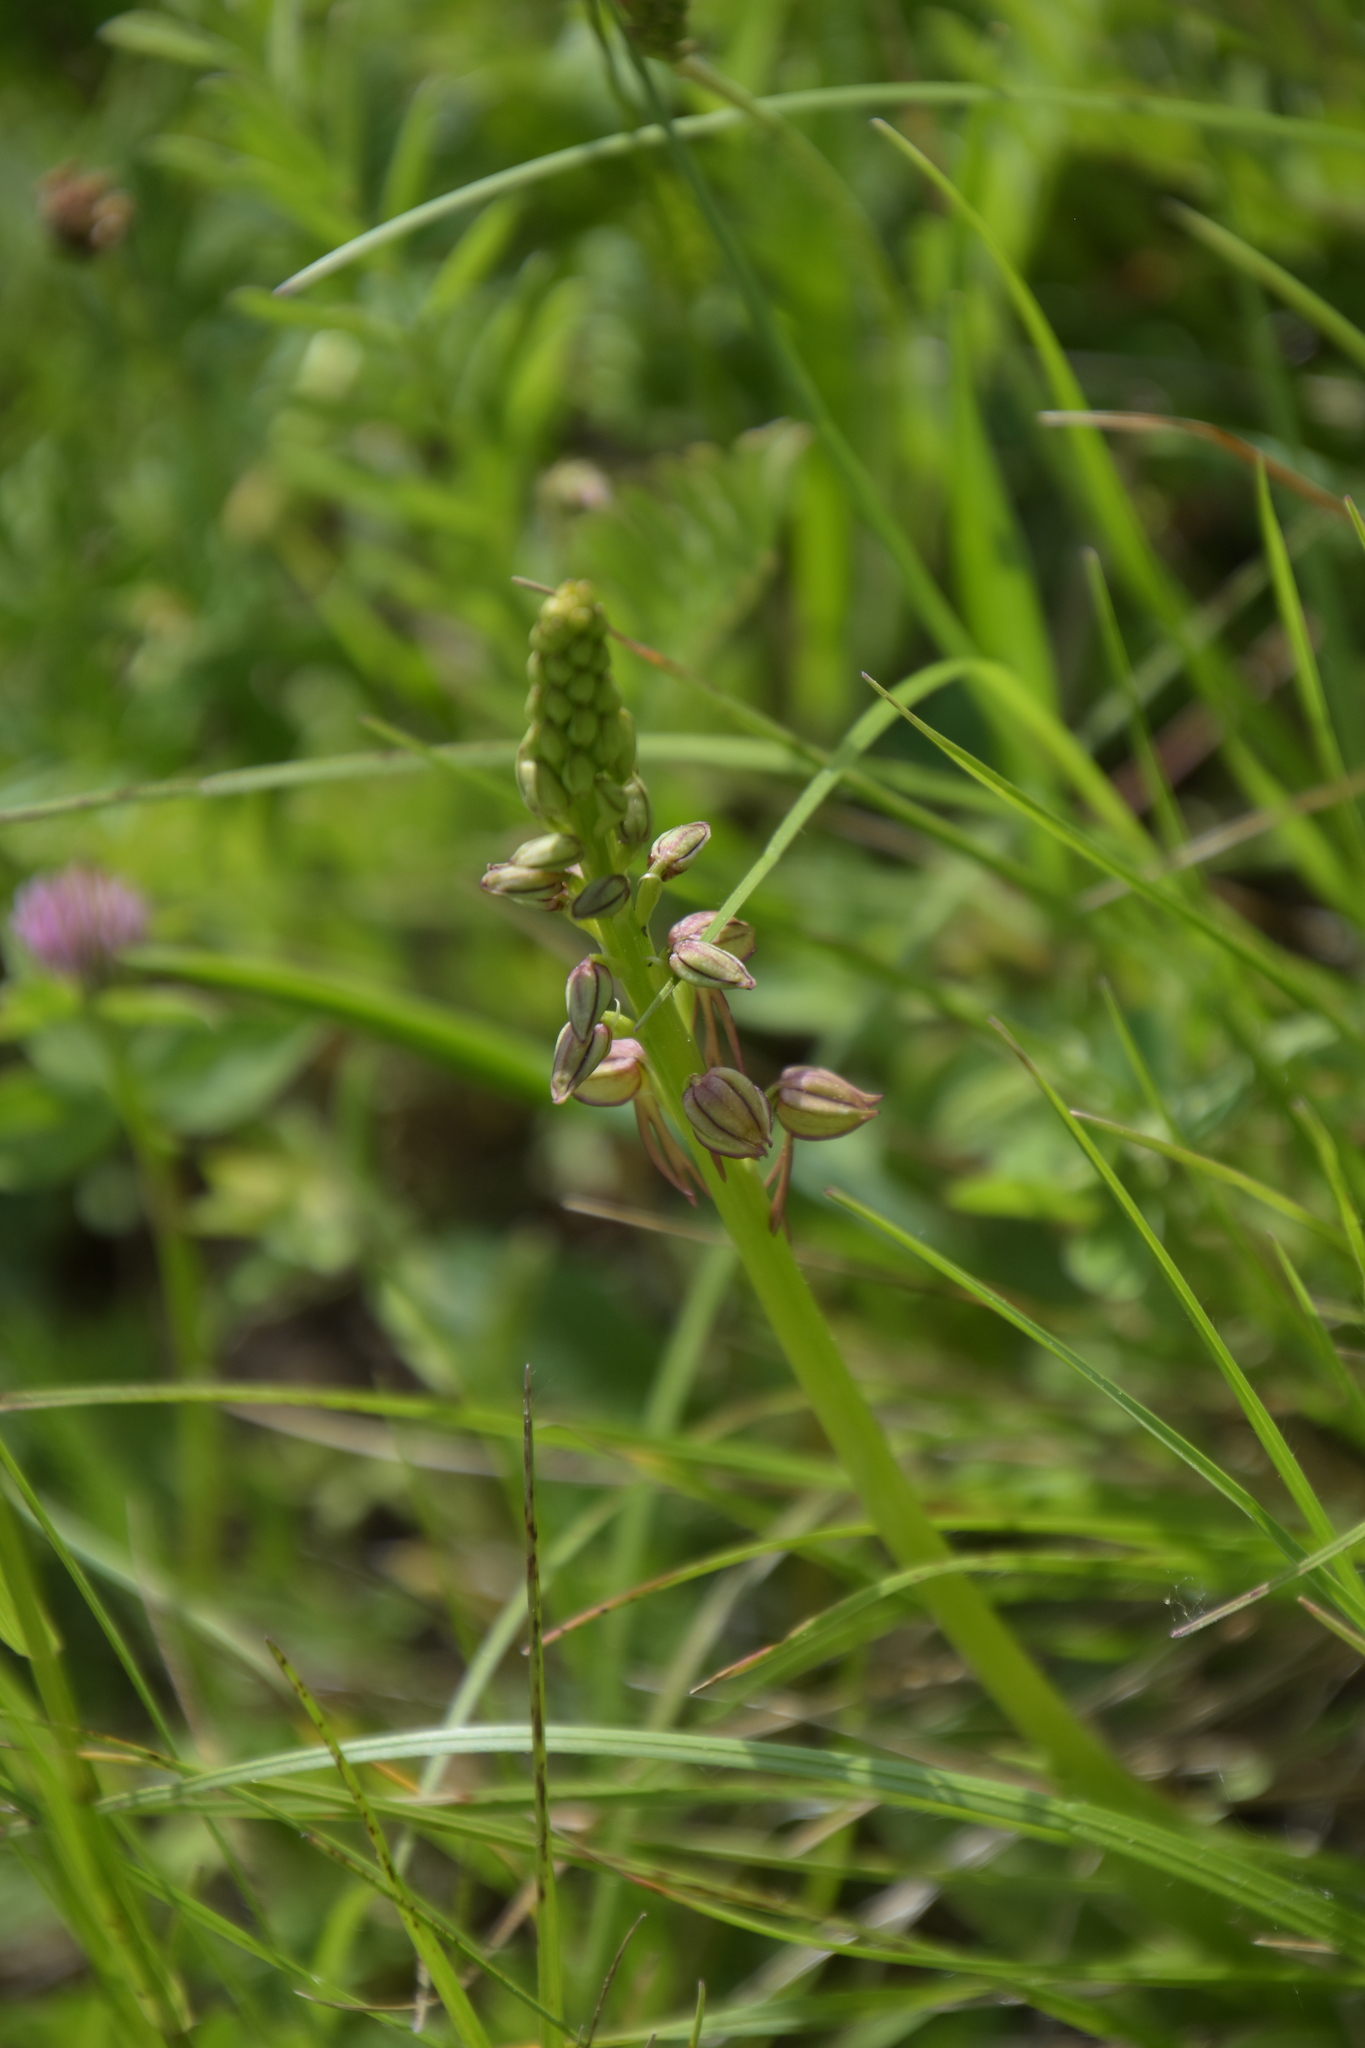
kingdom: Plantae
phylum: Tracheophyta
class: Liliopsida
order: Asparagales
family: Orchidaceae
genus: Orchis
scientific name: Orchis anthropophora
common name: Man orchid
